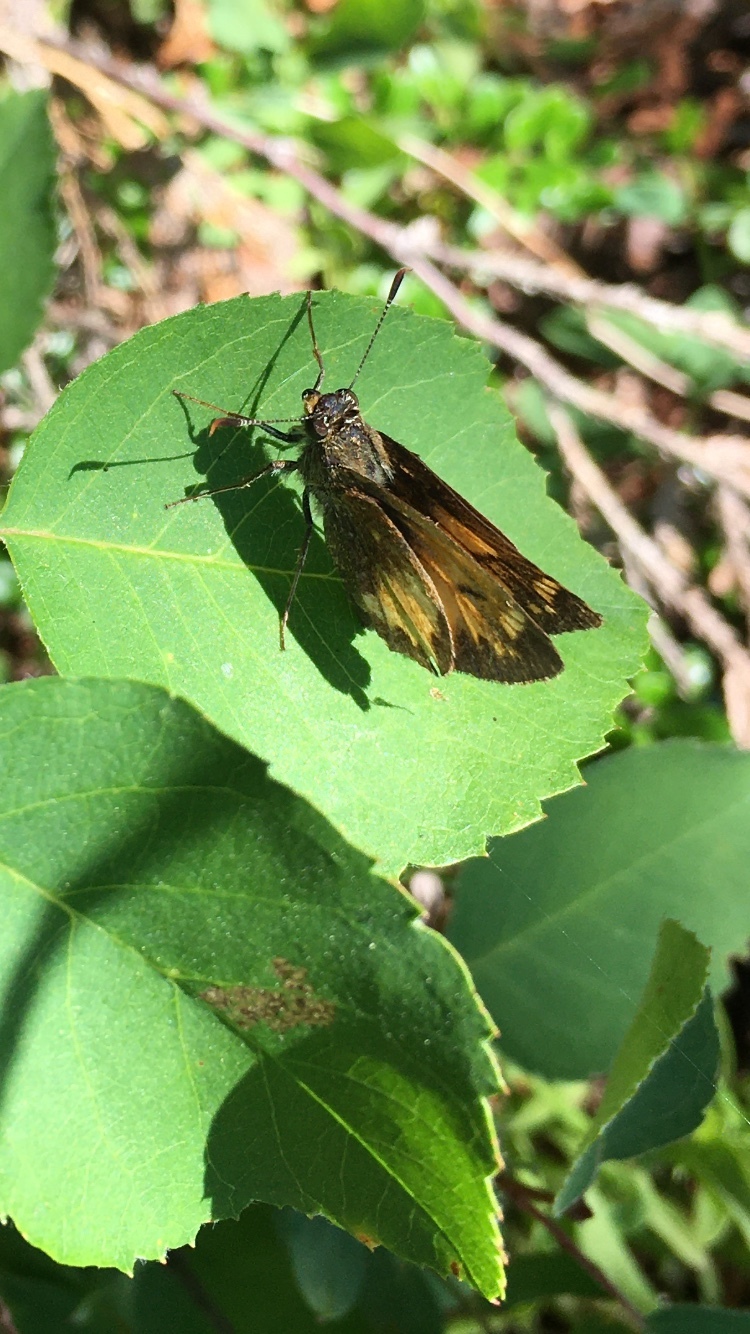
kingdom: Animalia
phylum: Arthropoda
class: Insecta
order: Lepidoptera
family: Hesperiidae
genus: Lon
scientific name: Lon hobomok
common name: Hobomok skipper
